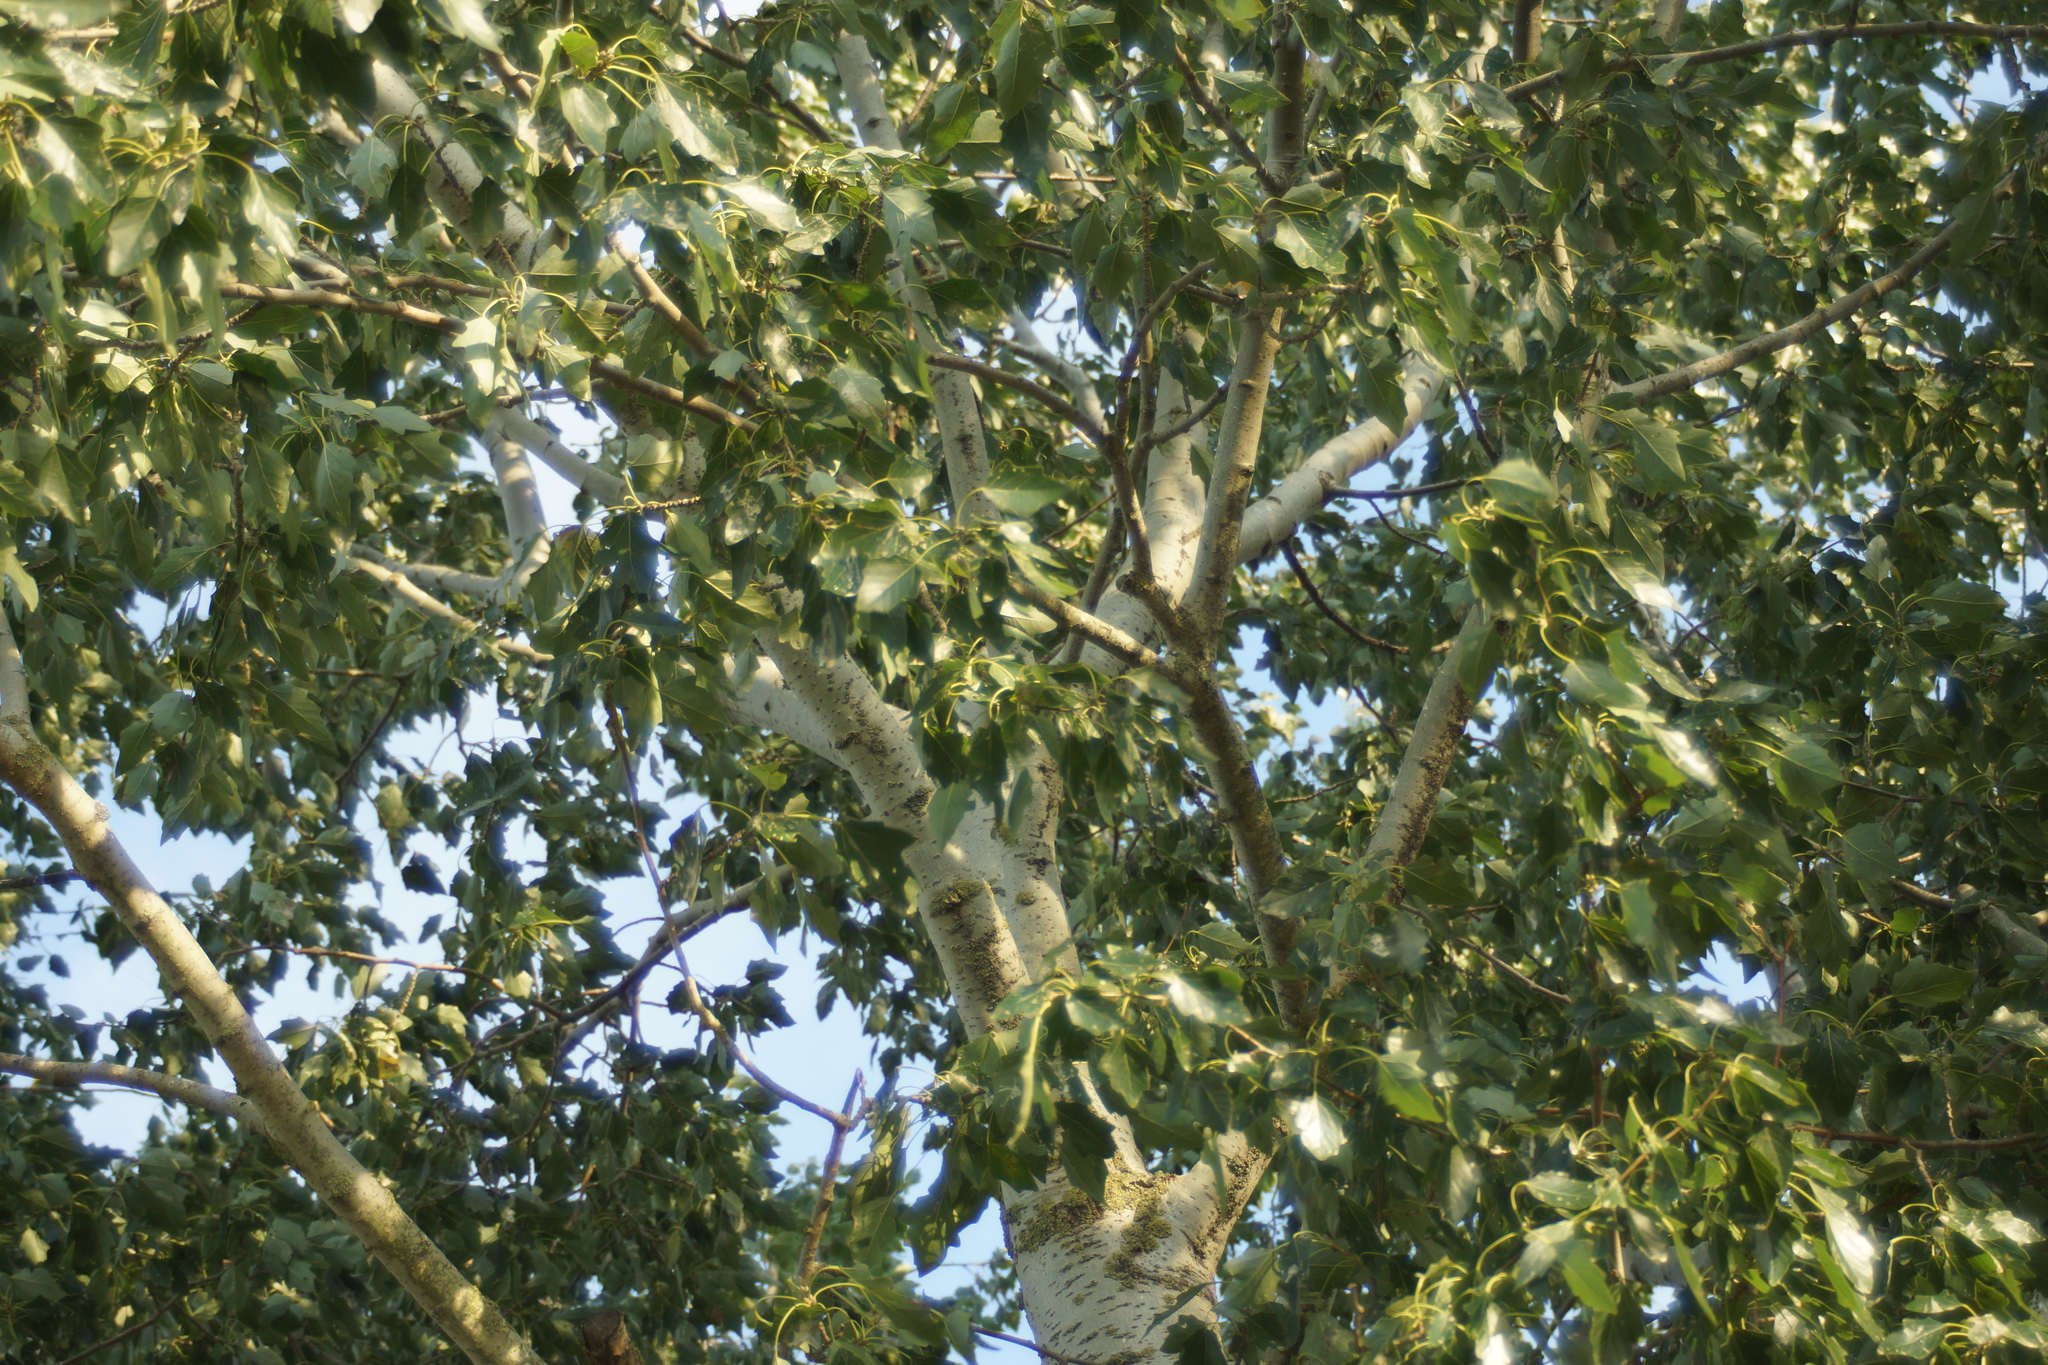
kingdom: Plantae
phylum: Tracheophyta
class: Magnoliopsida
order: Malpighiales
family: Salicaceae
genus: Populus
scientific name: Populus canescens
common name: Gray poplar
